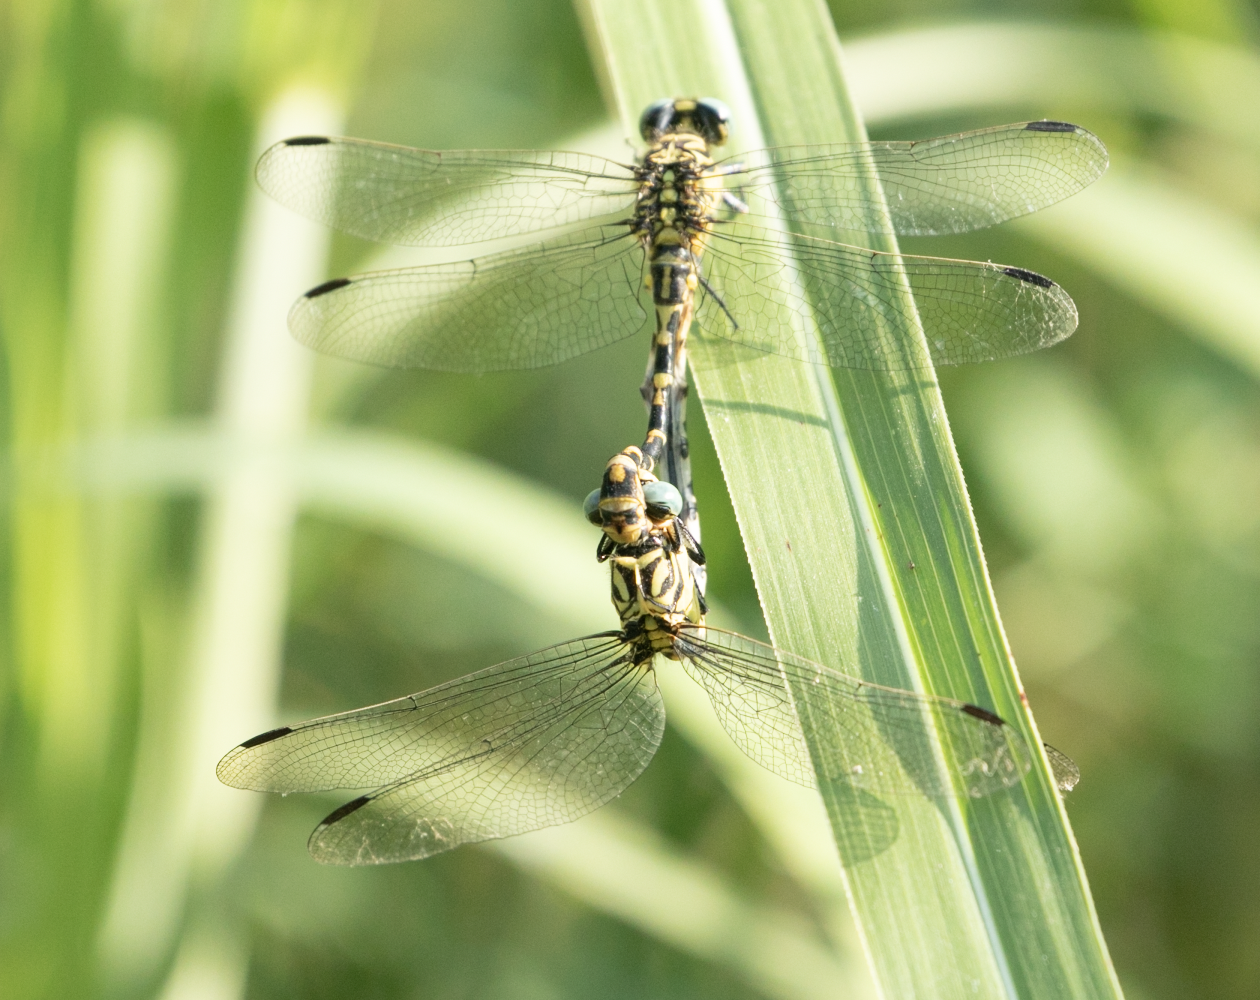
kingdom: Animalia
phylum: Arthropoda
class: Insecta
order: Odonata
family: Gomphidae
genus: Onychogomphus
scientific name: Onychogomphus forcipatus
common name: Small pincertail
